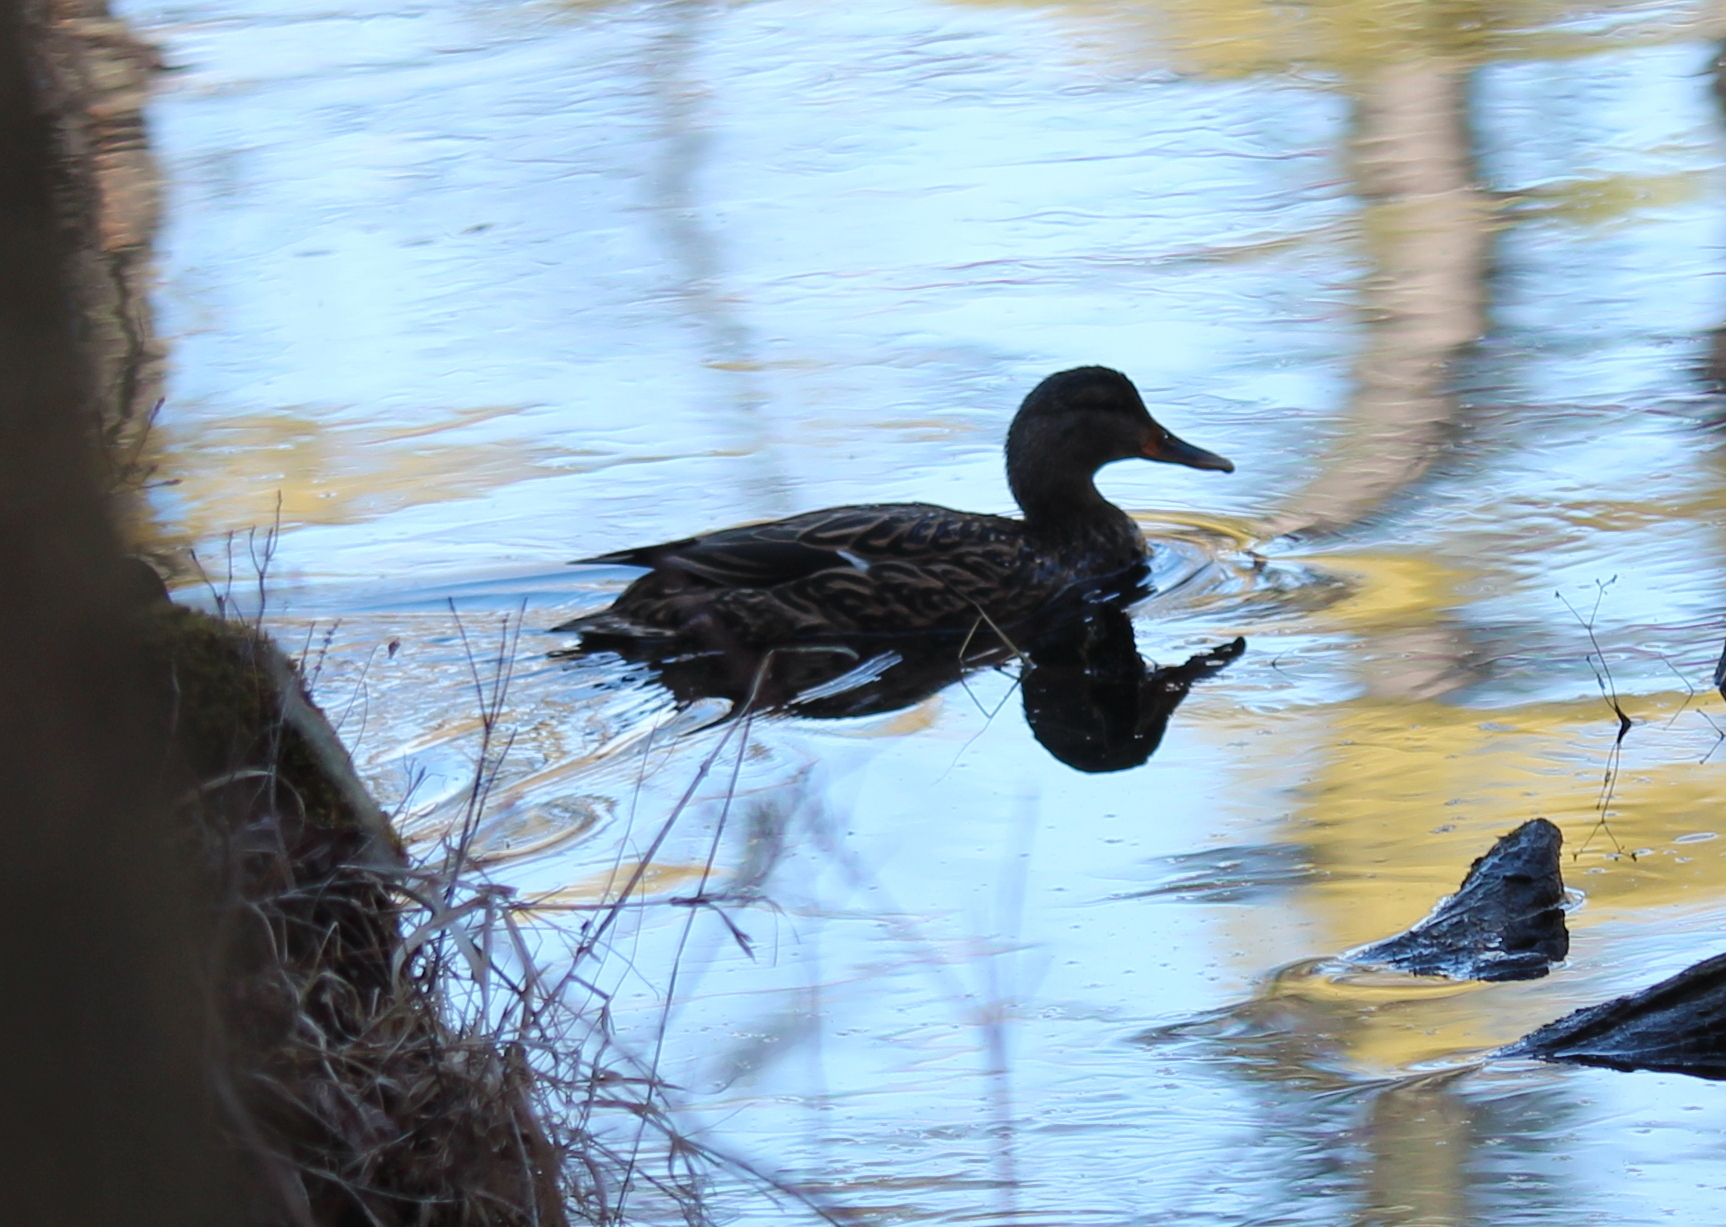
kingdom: Animalia
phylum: Chordata
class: Aves
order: Anseriformes
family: Anatidae
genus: Anas
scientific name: Anas platyrhynchos
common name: Mallard
